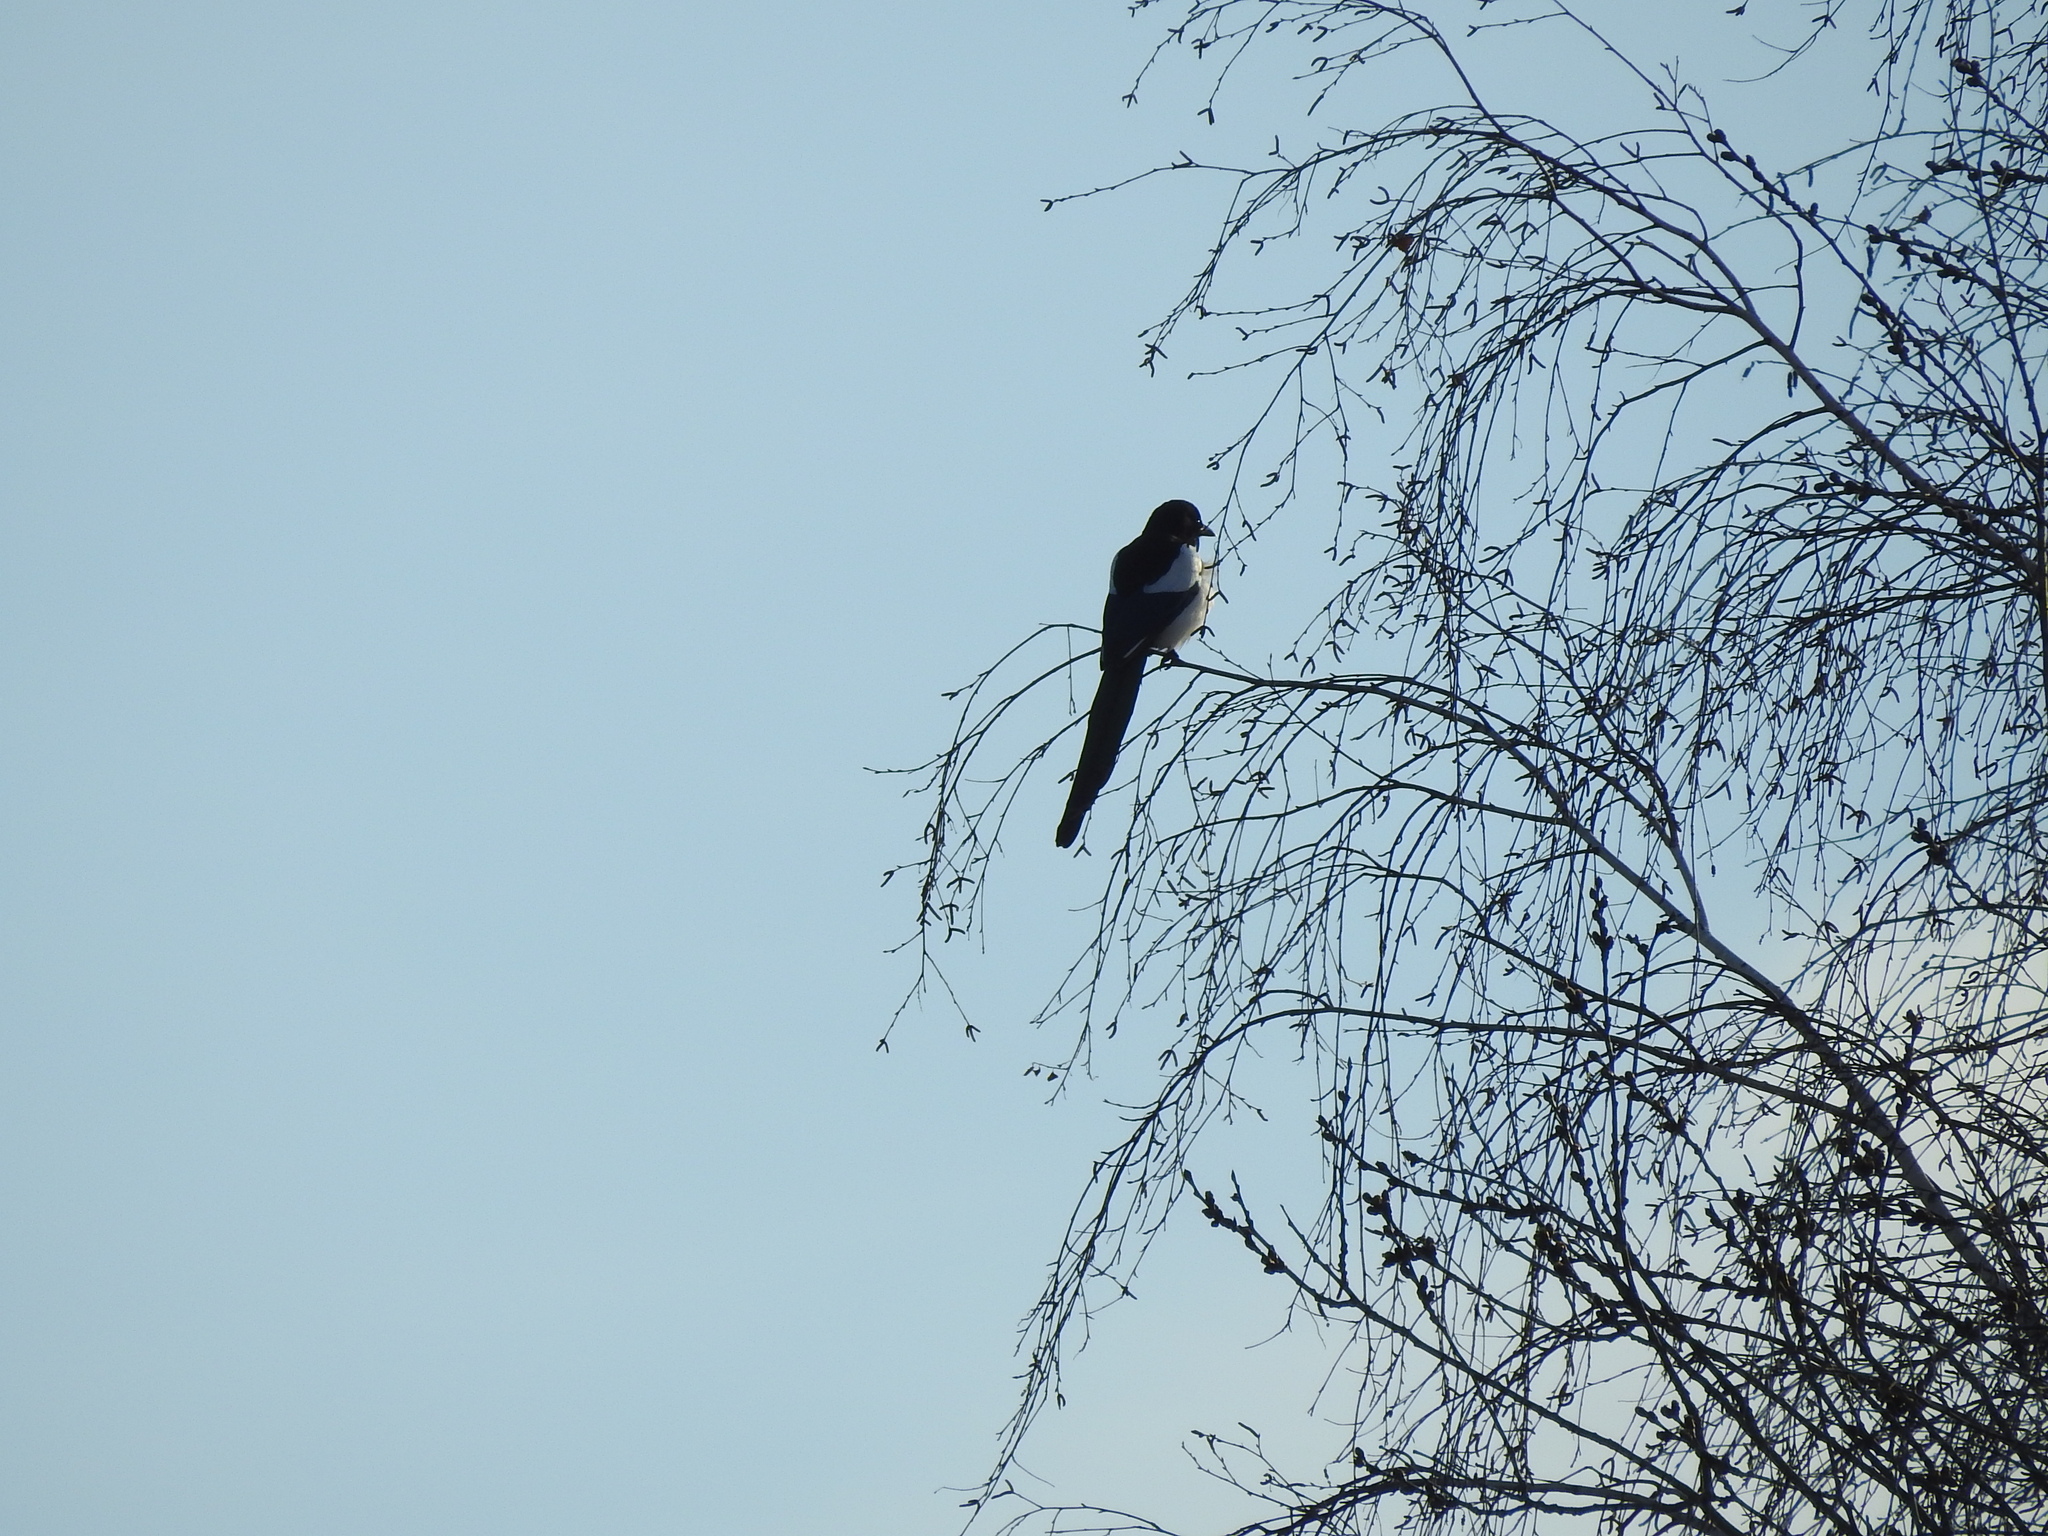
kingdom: Animalia
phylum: Chordata
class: Aves
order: Passeriformes
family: Corvidae
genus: Pica
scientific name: Pica pica
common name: Eurasian magpie
